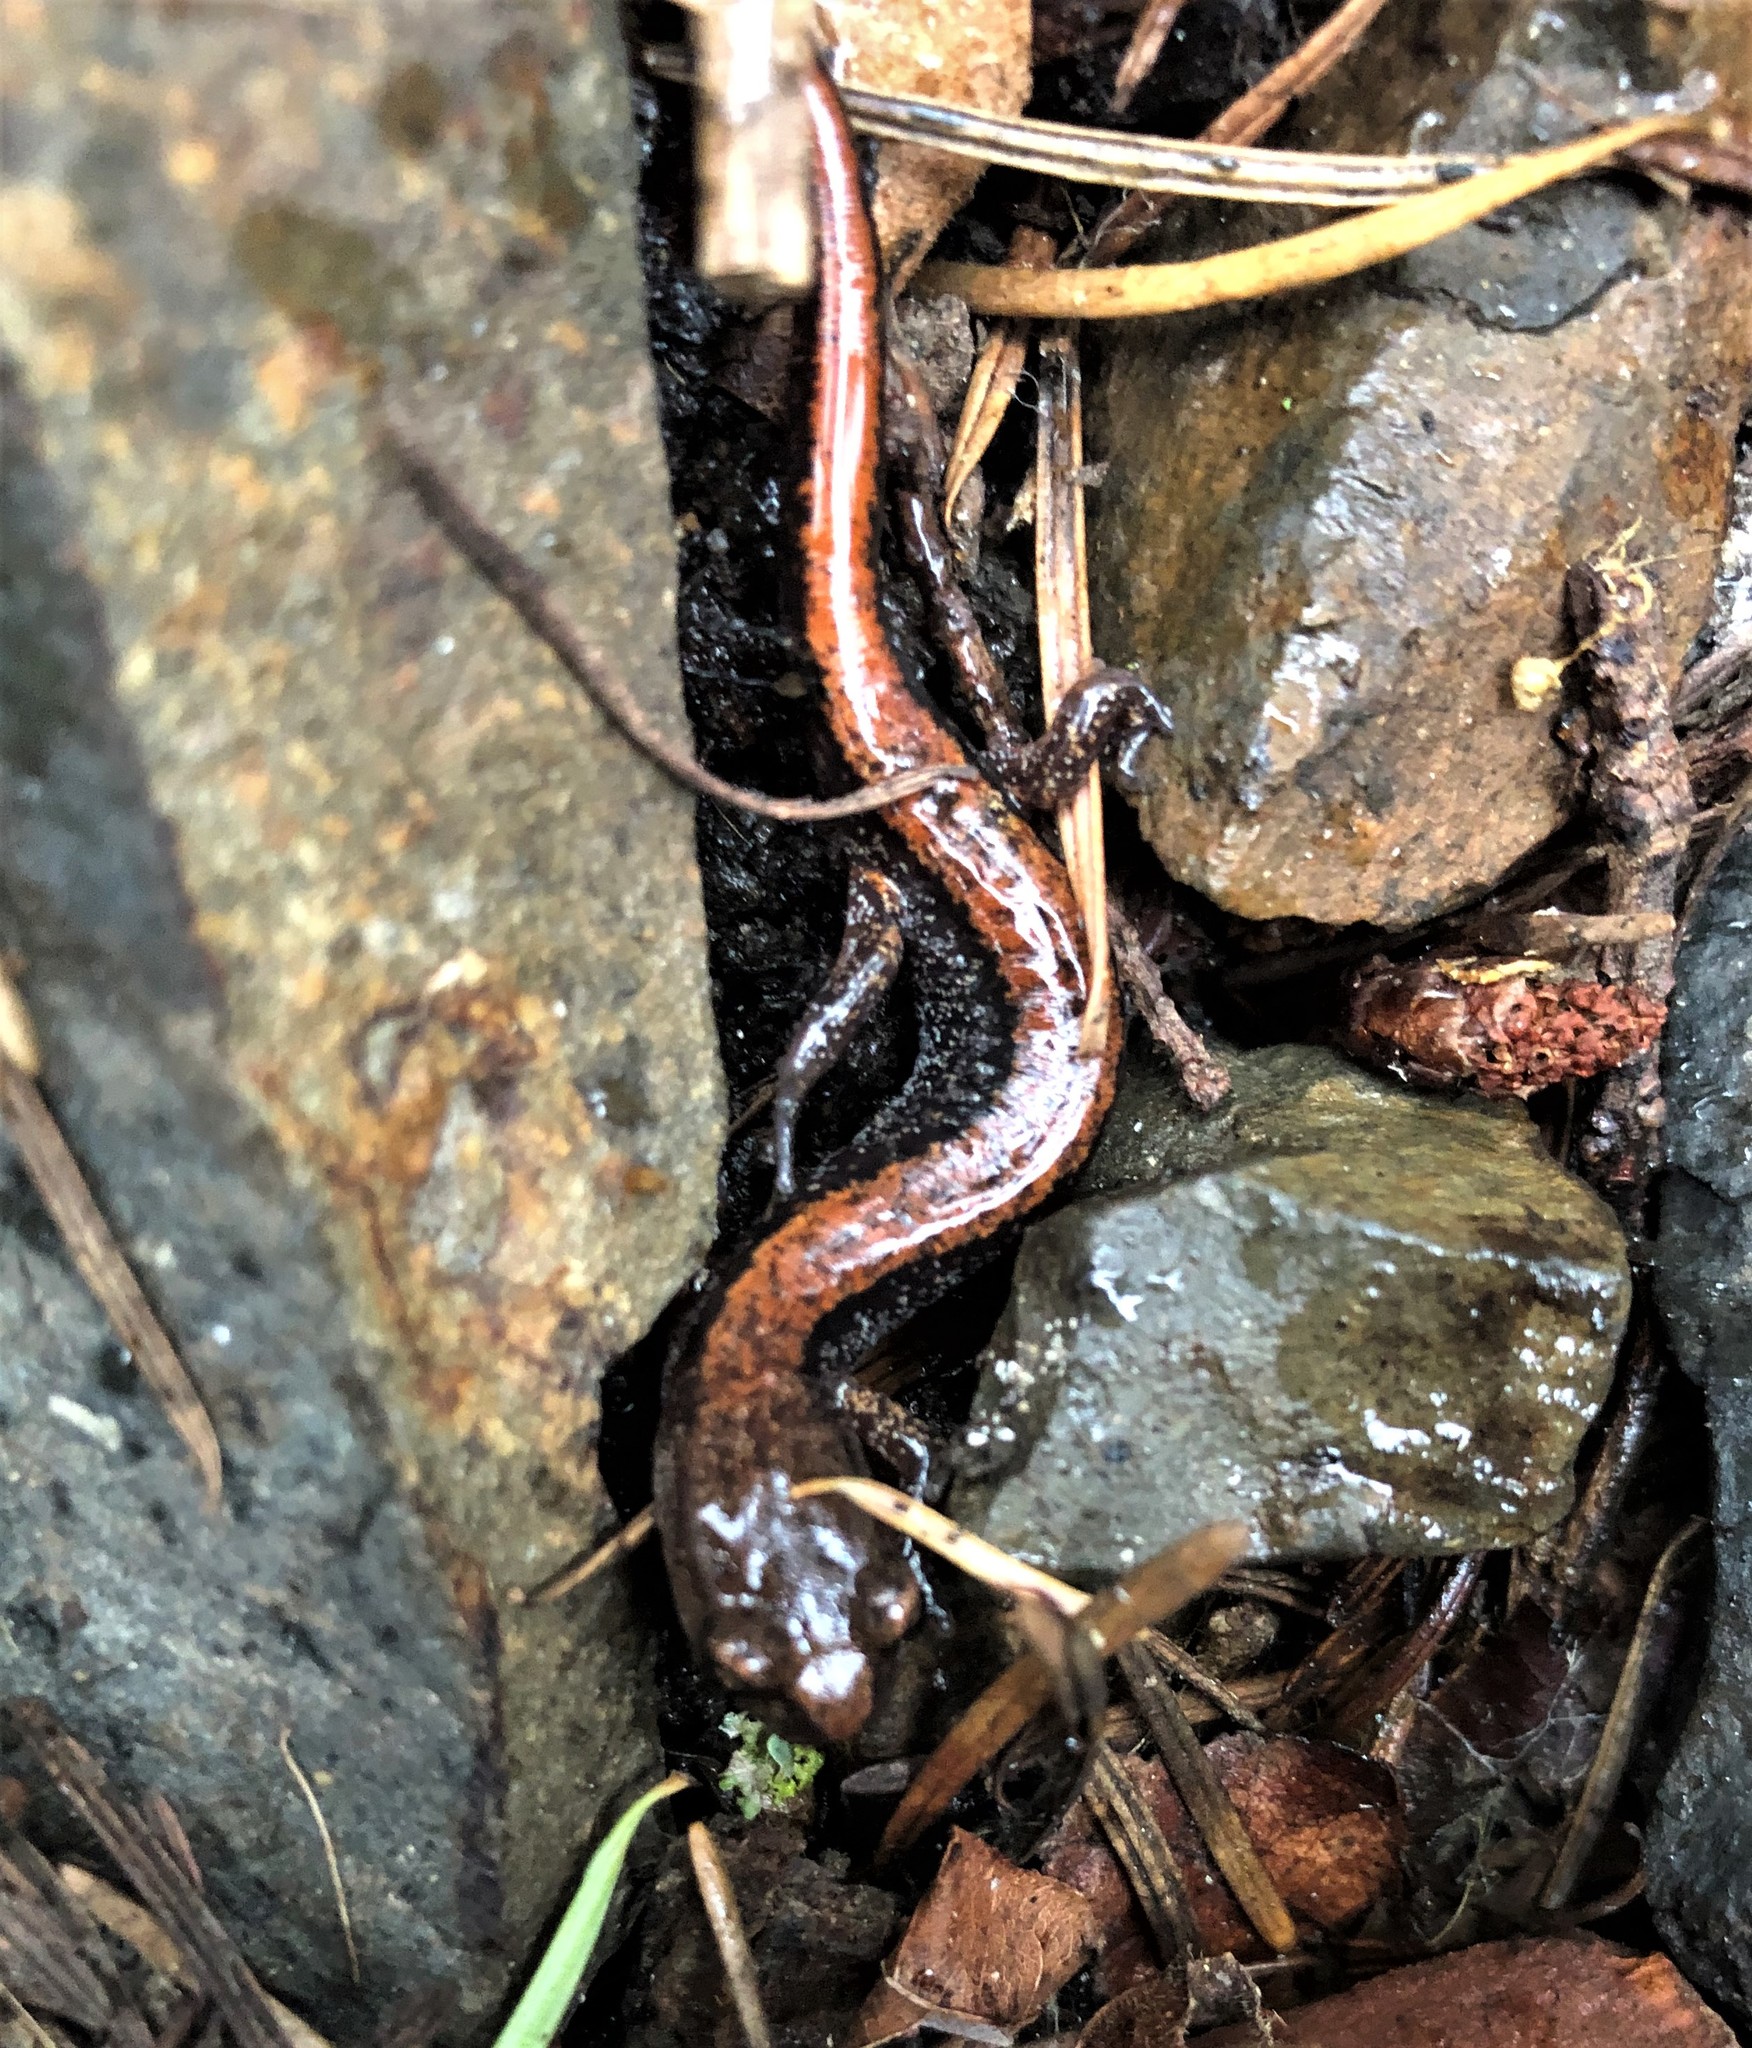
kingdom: Animalia
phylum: Chordata
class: Amphibia
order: Caudata
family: Plethodontidae
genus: Plethodon
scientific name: Plethodon larselli
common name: Larch mountain salamander
